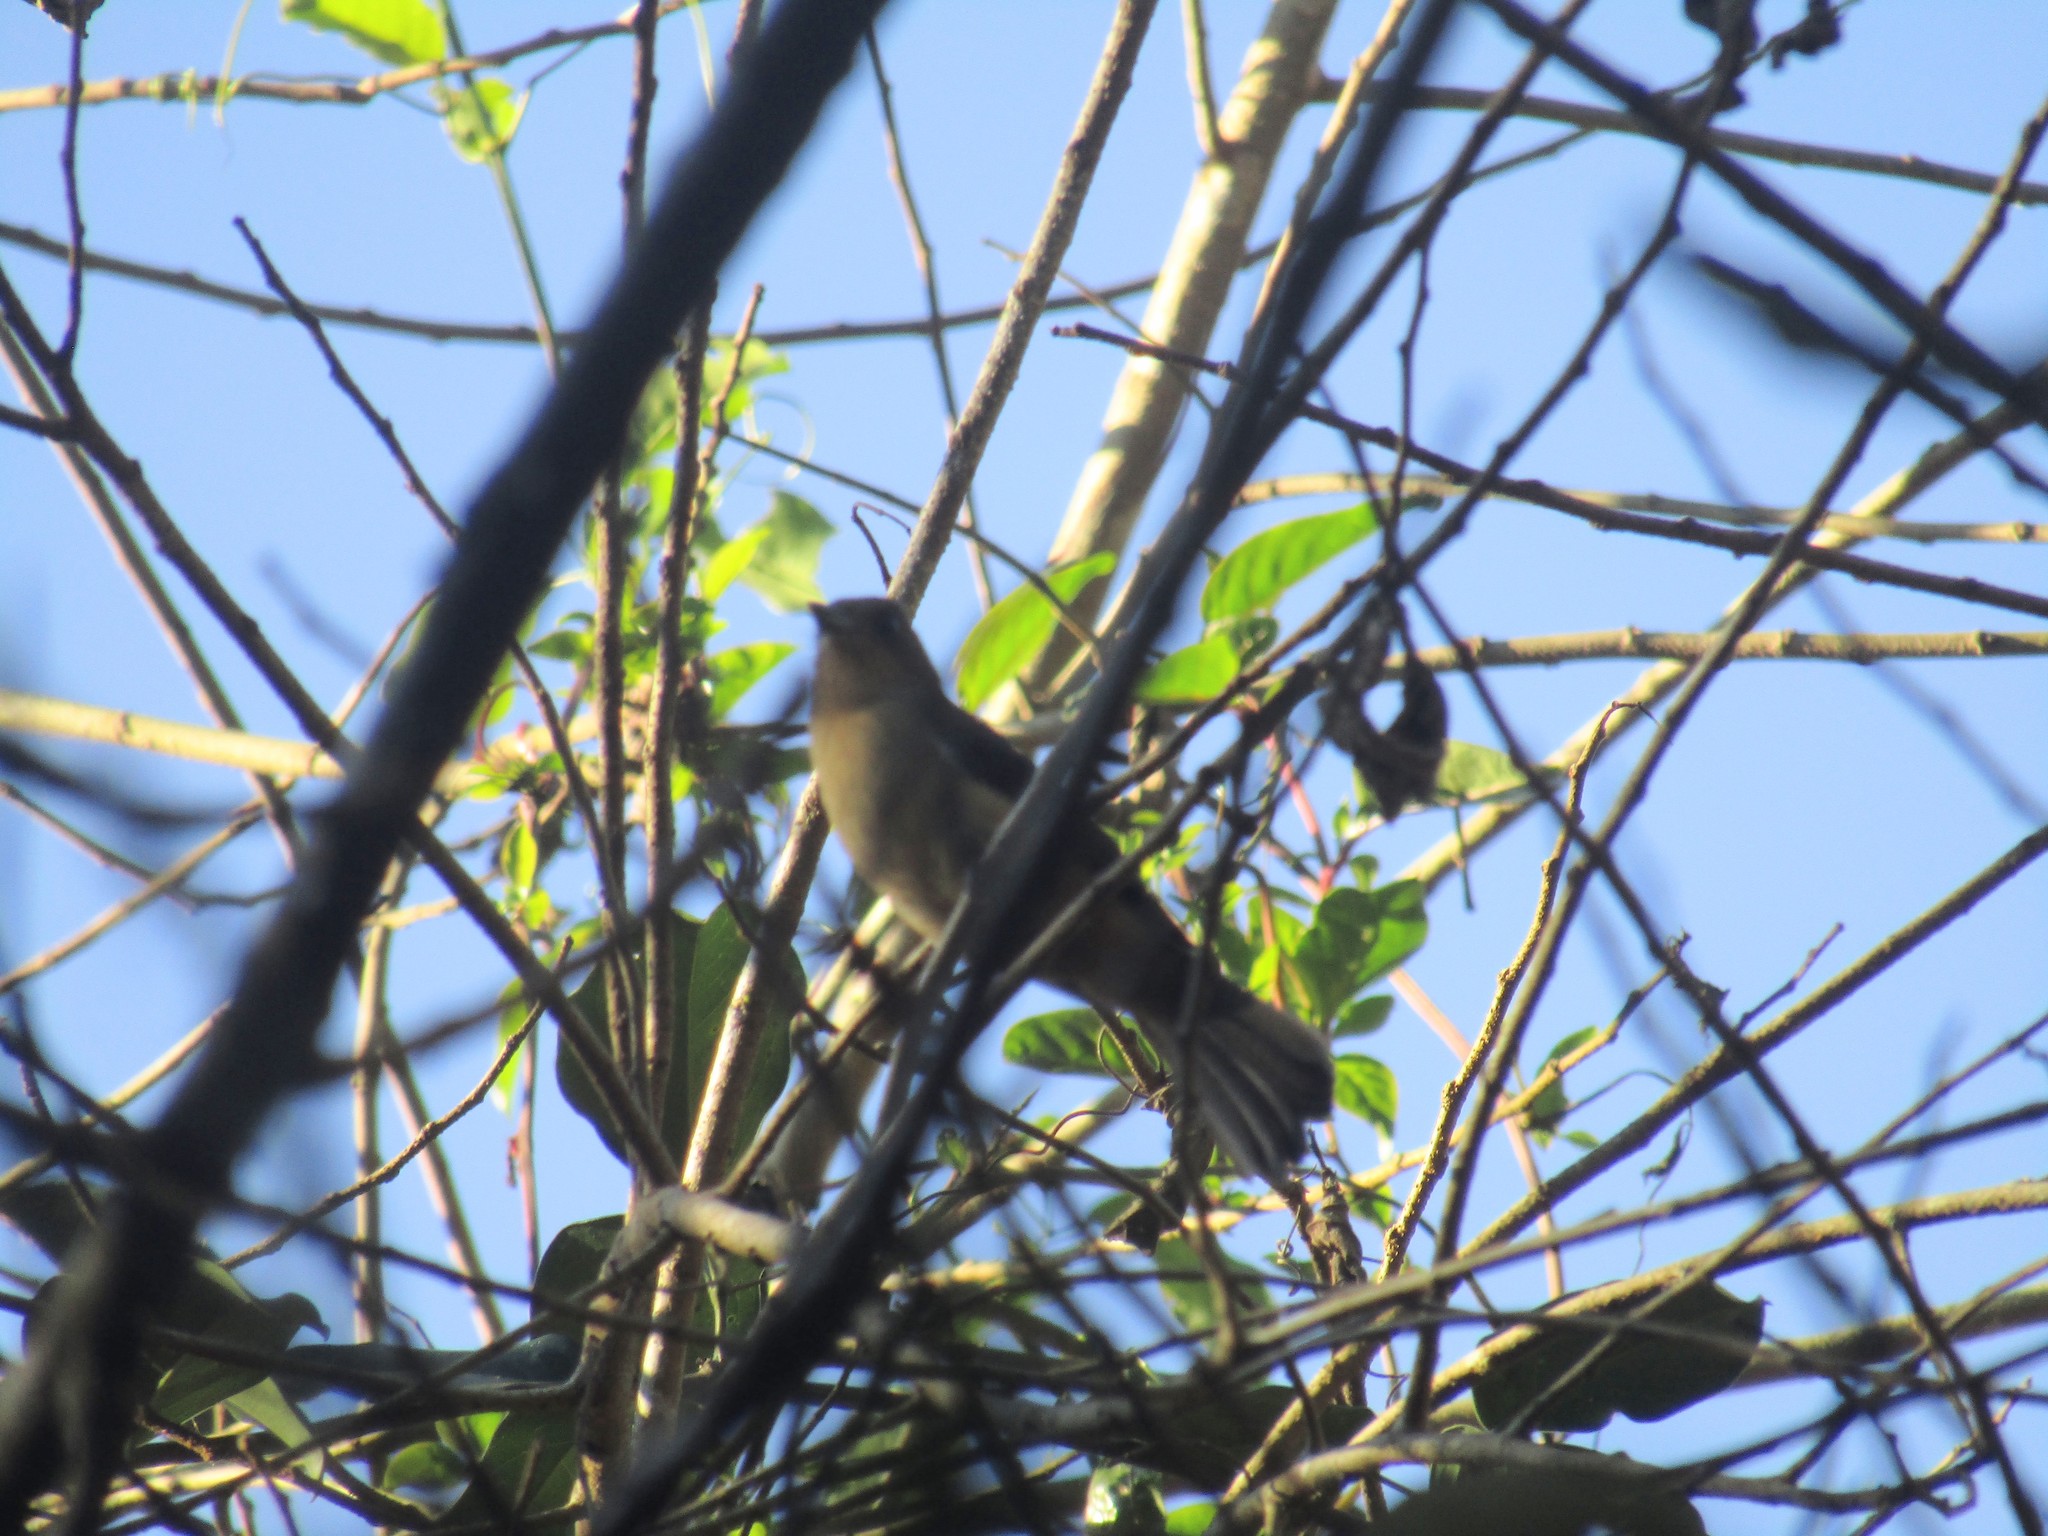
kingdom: Animalia
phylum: Chordata
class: Aves
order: Passeriformes
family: Thraupidae
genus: Trichothraupis
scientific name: Trichothraupis melanops
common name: Black-goggled tanager
